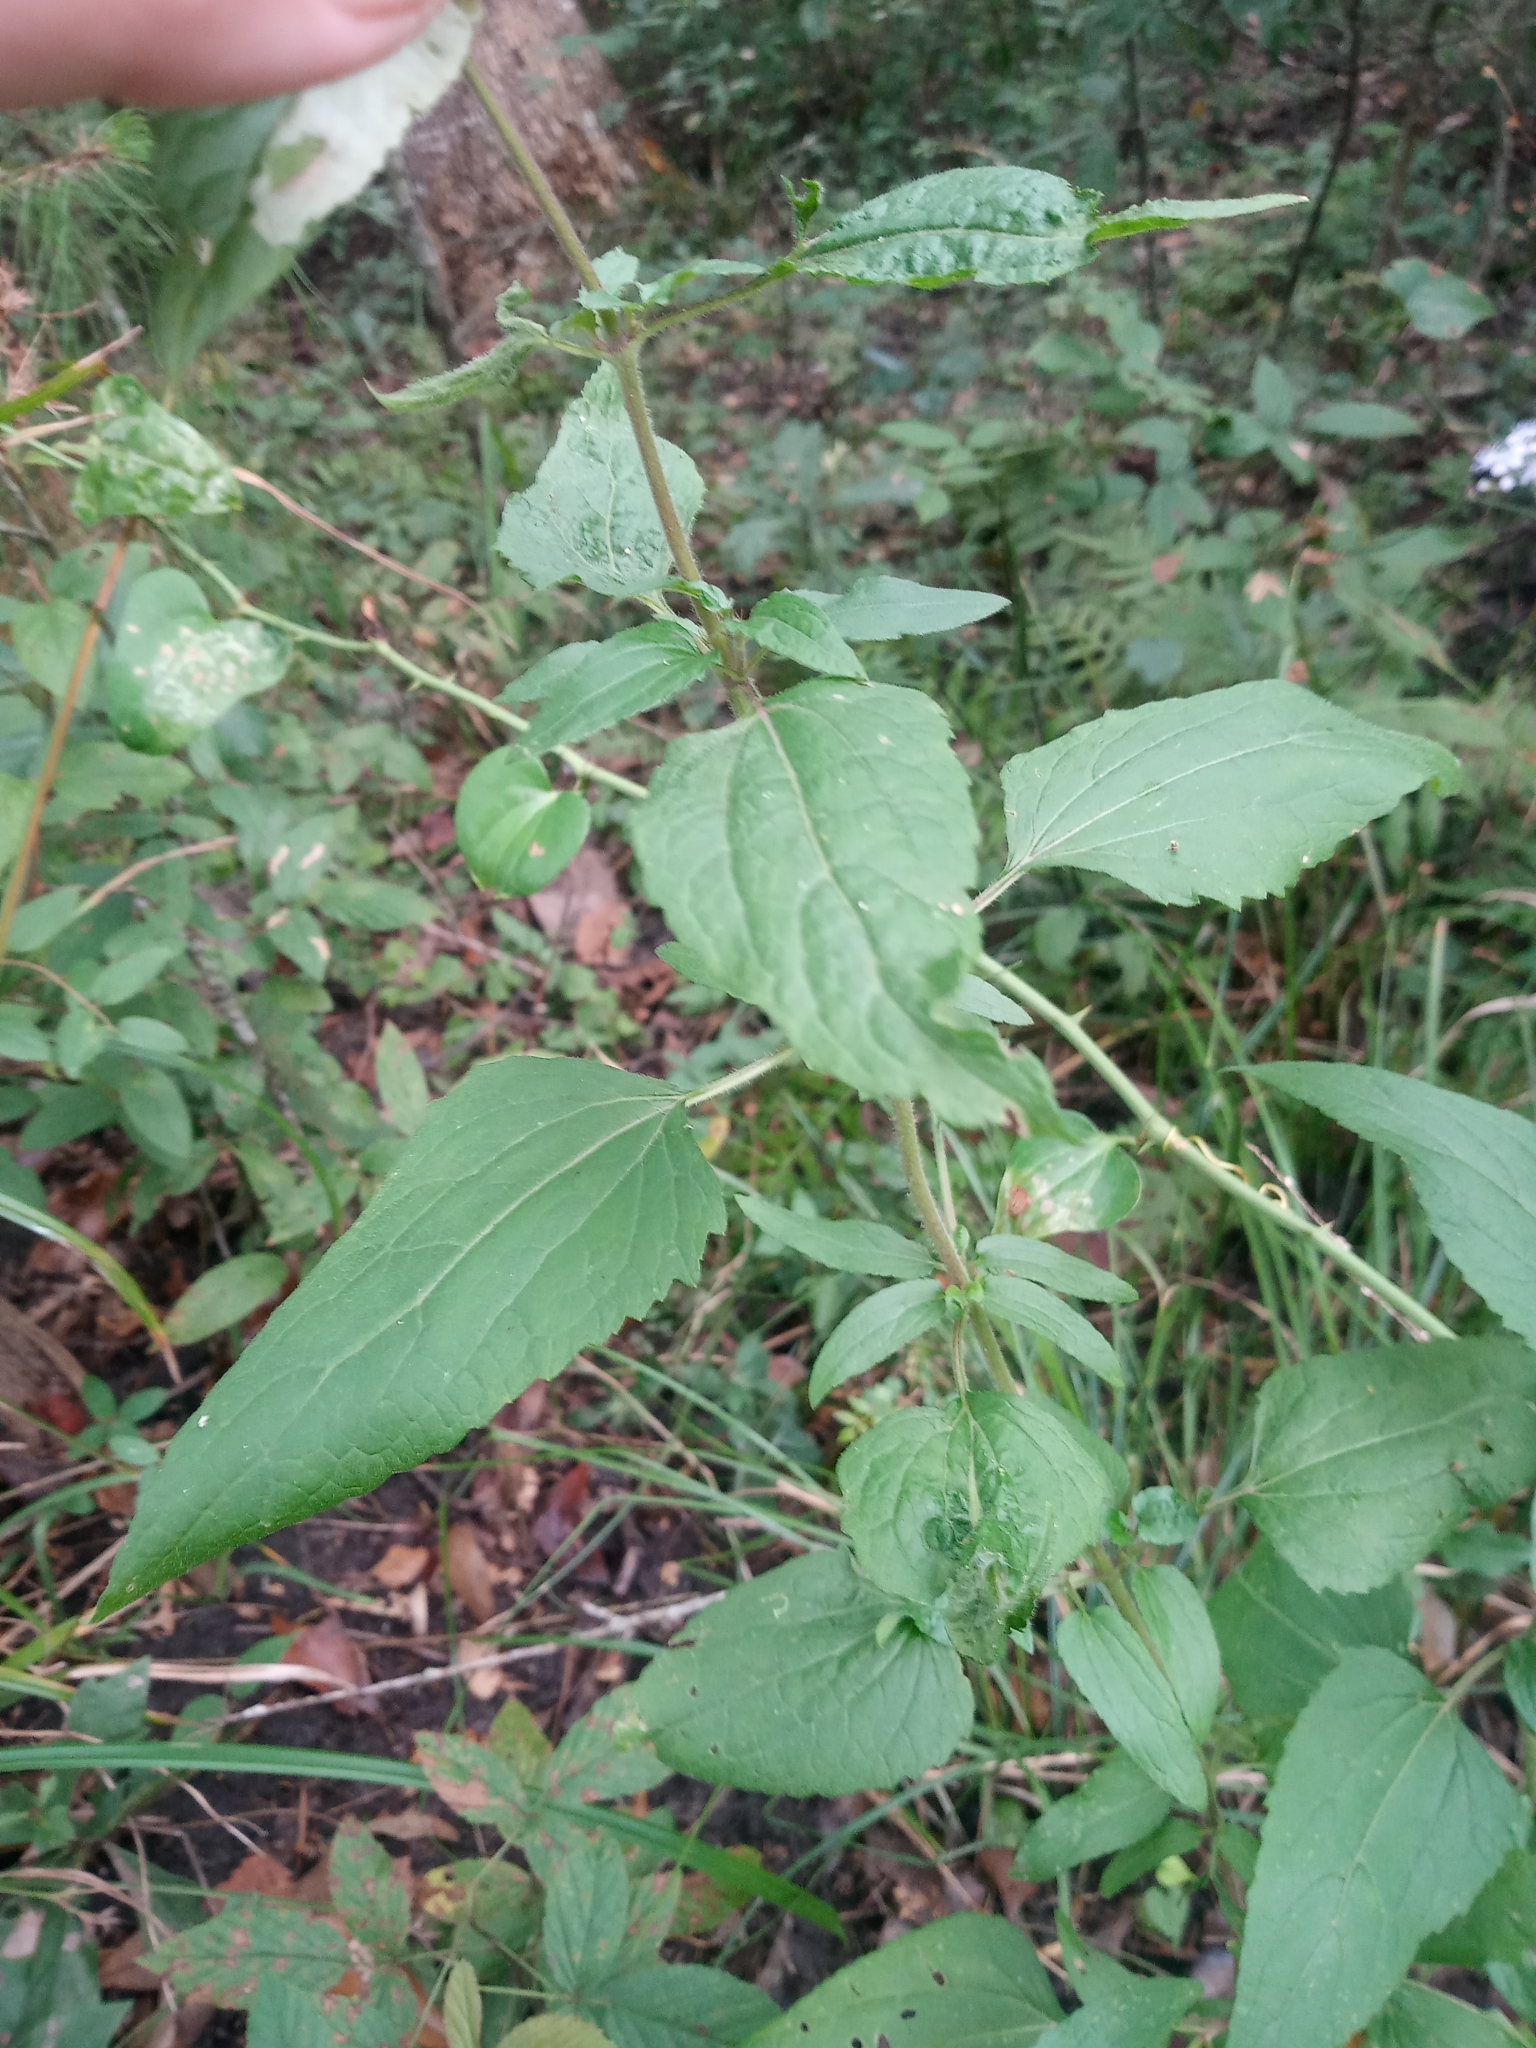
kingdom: Plantae
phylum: Tracheophyta
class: Magnoliopsida
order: Asterales
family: Asteraceae
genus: Conoclinium
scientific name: Conoclinium coelestinum
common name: Blue mistflower
